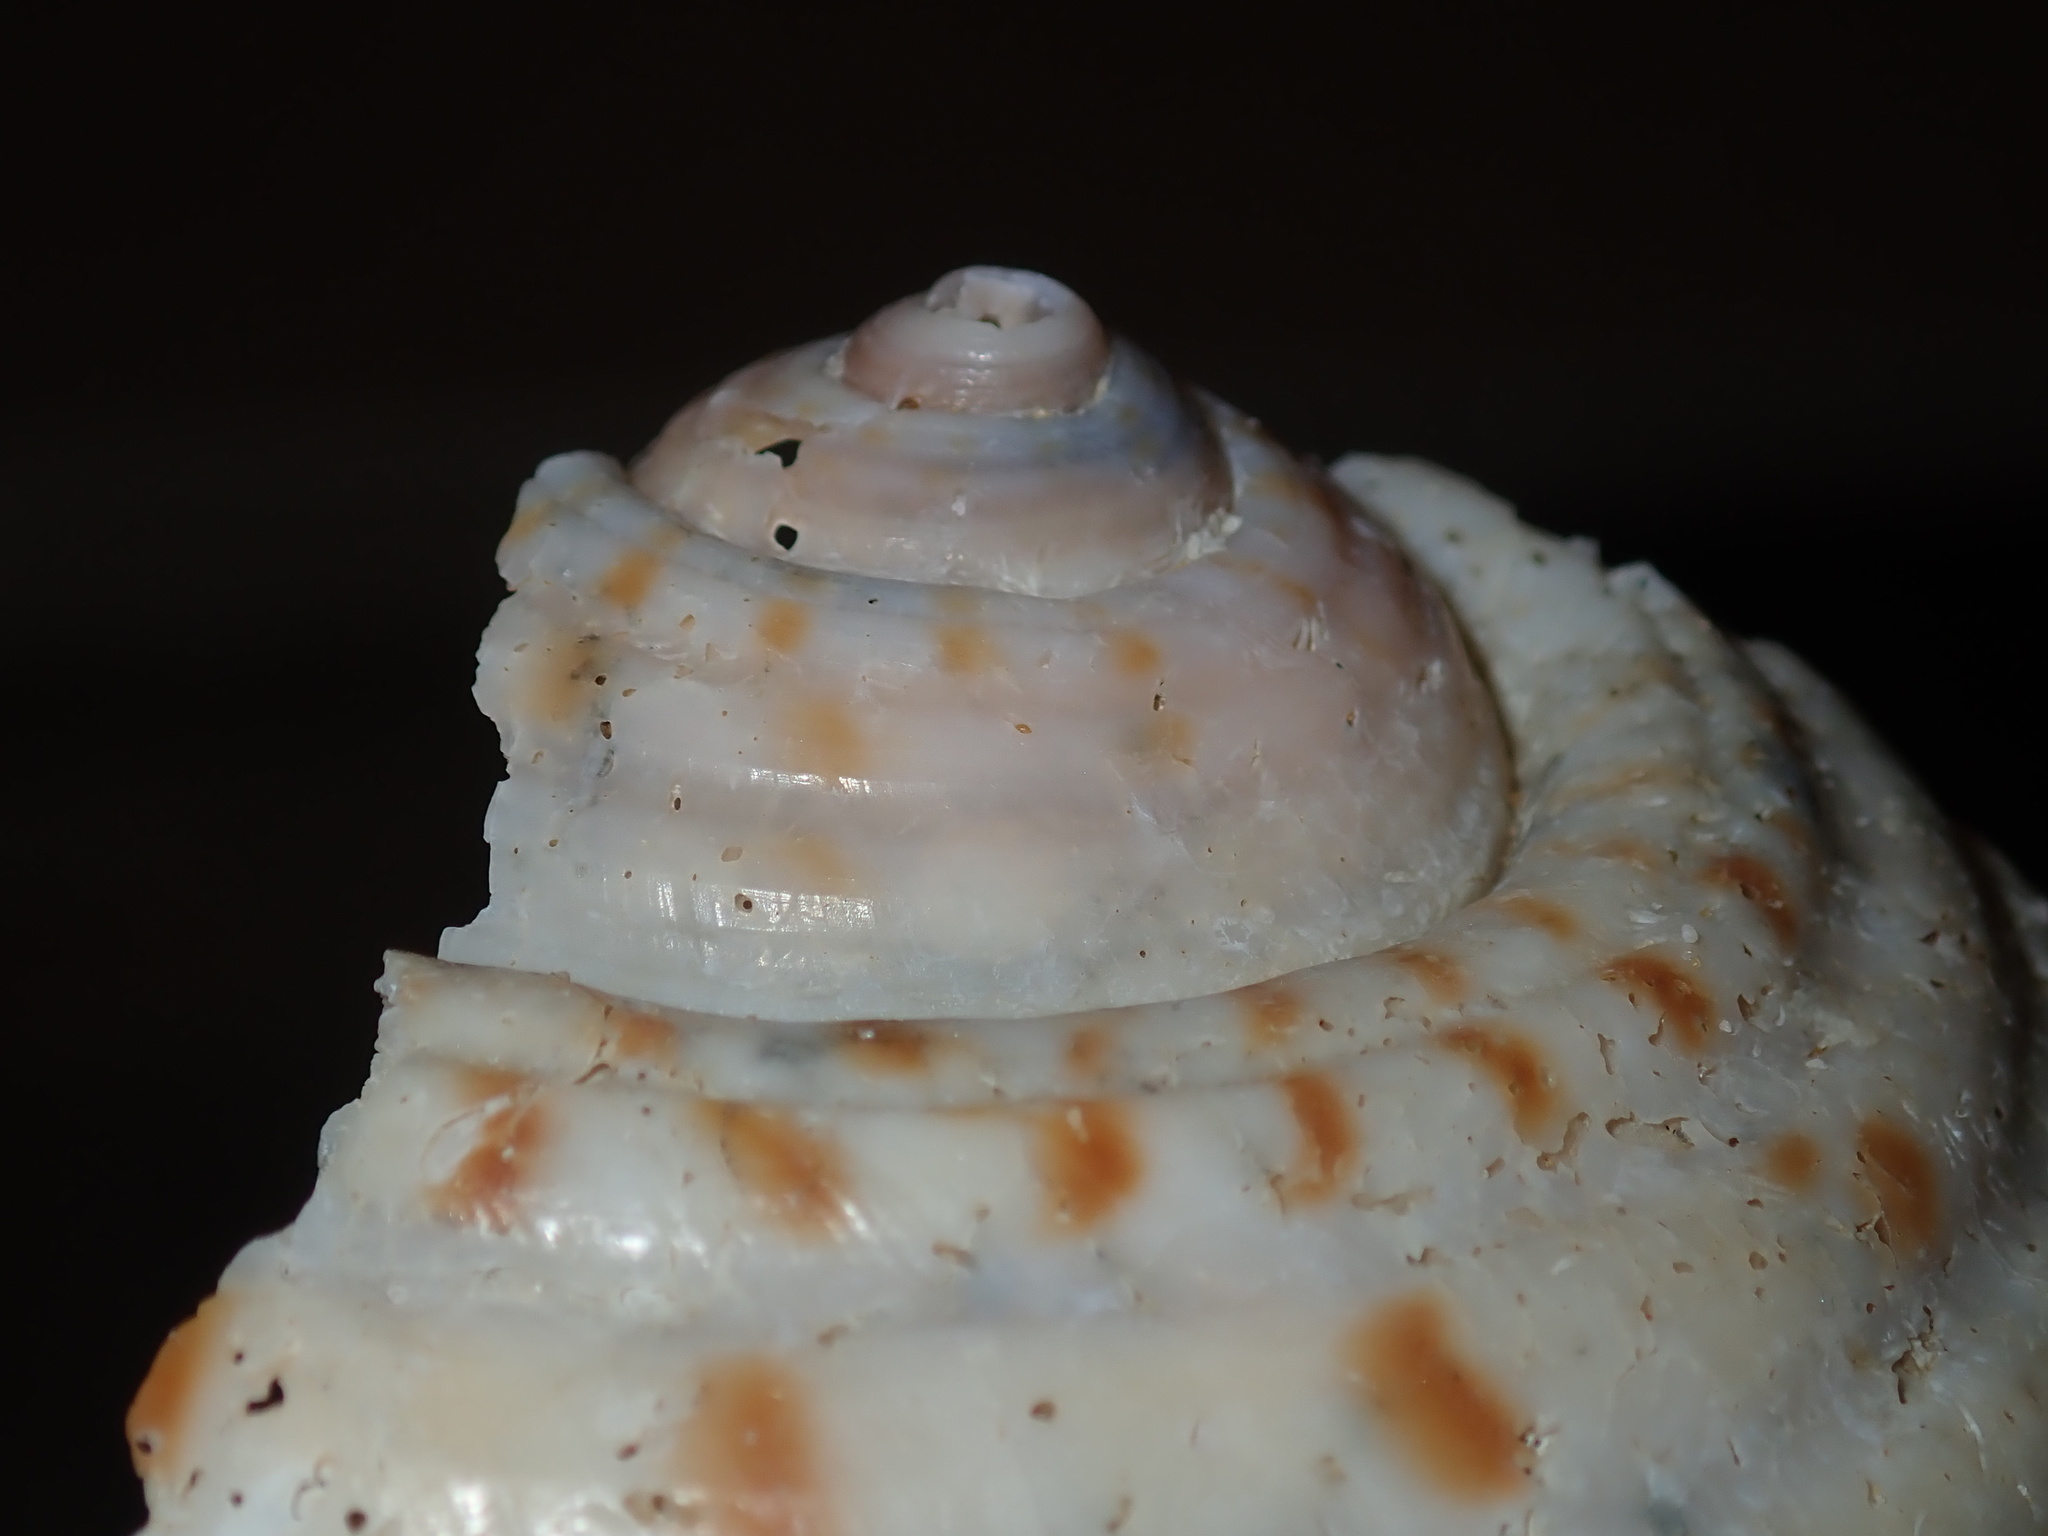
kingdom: Animalia
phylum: Mollusca
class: Gastropoda
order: Littorinimorpha
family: Tonnidae
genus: Tonna
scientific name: Tonna tankervillii
